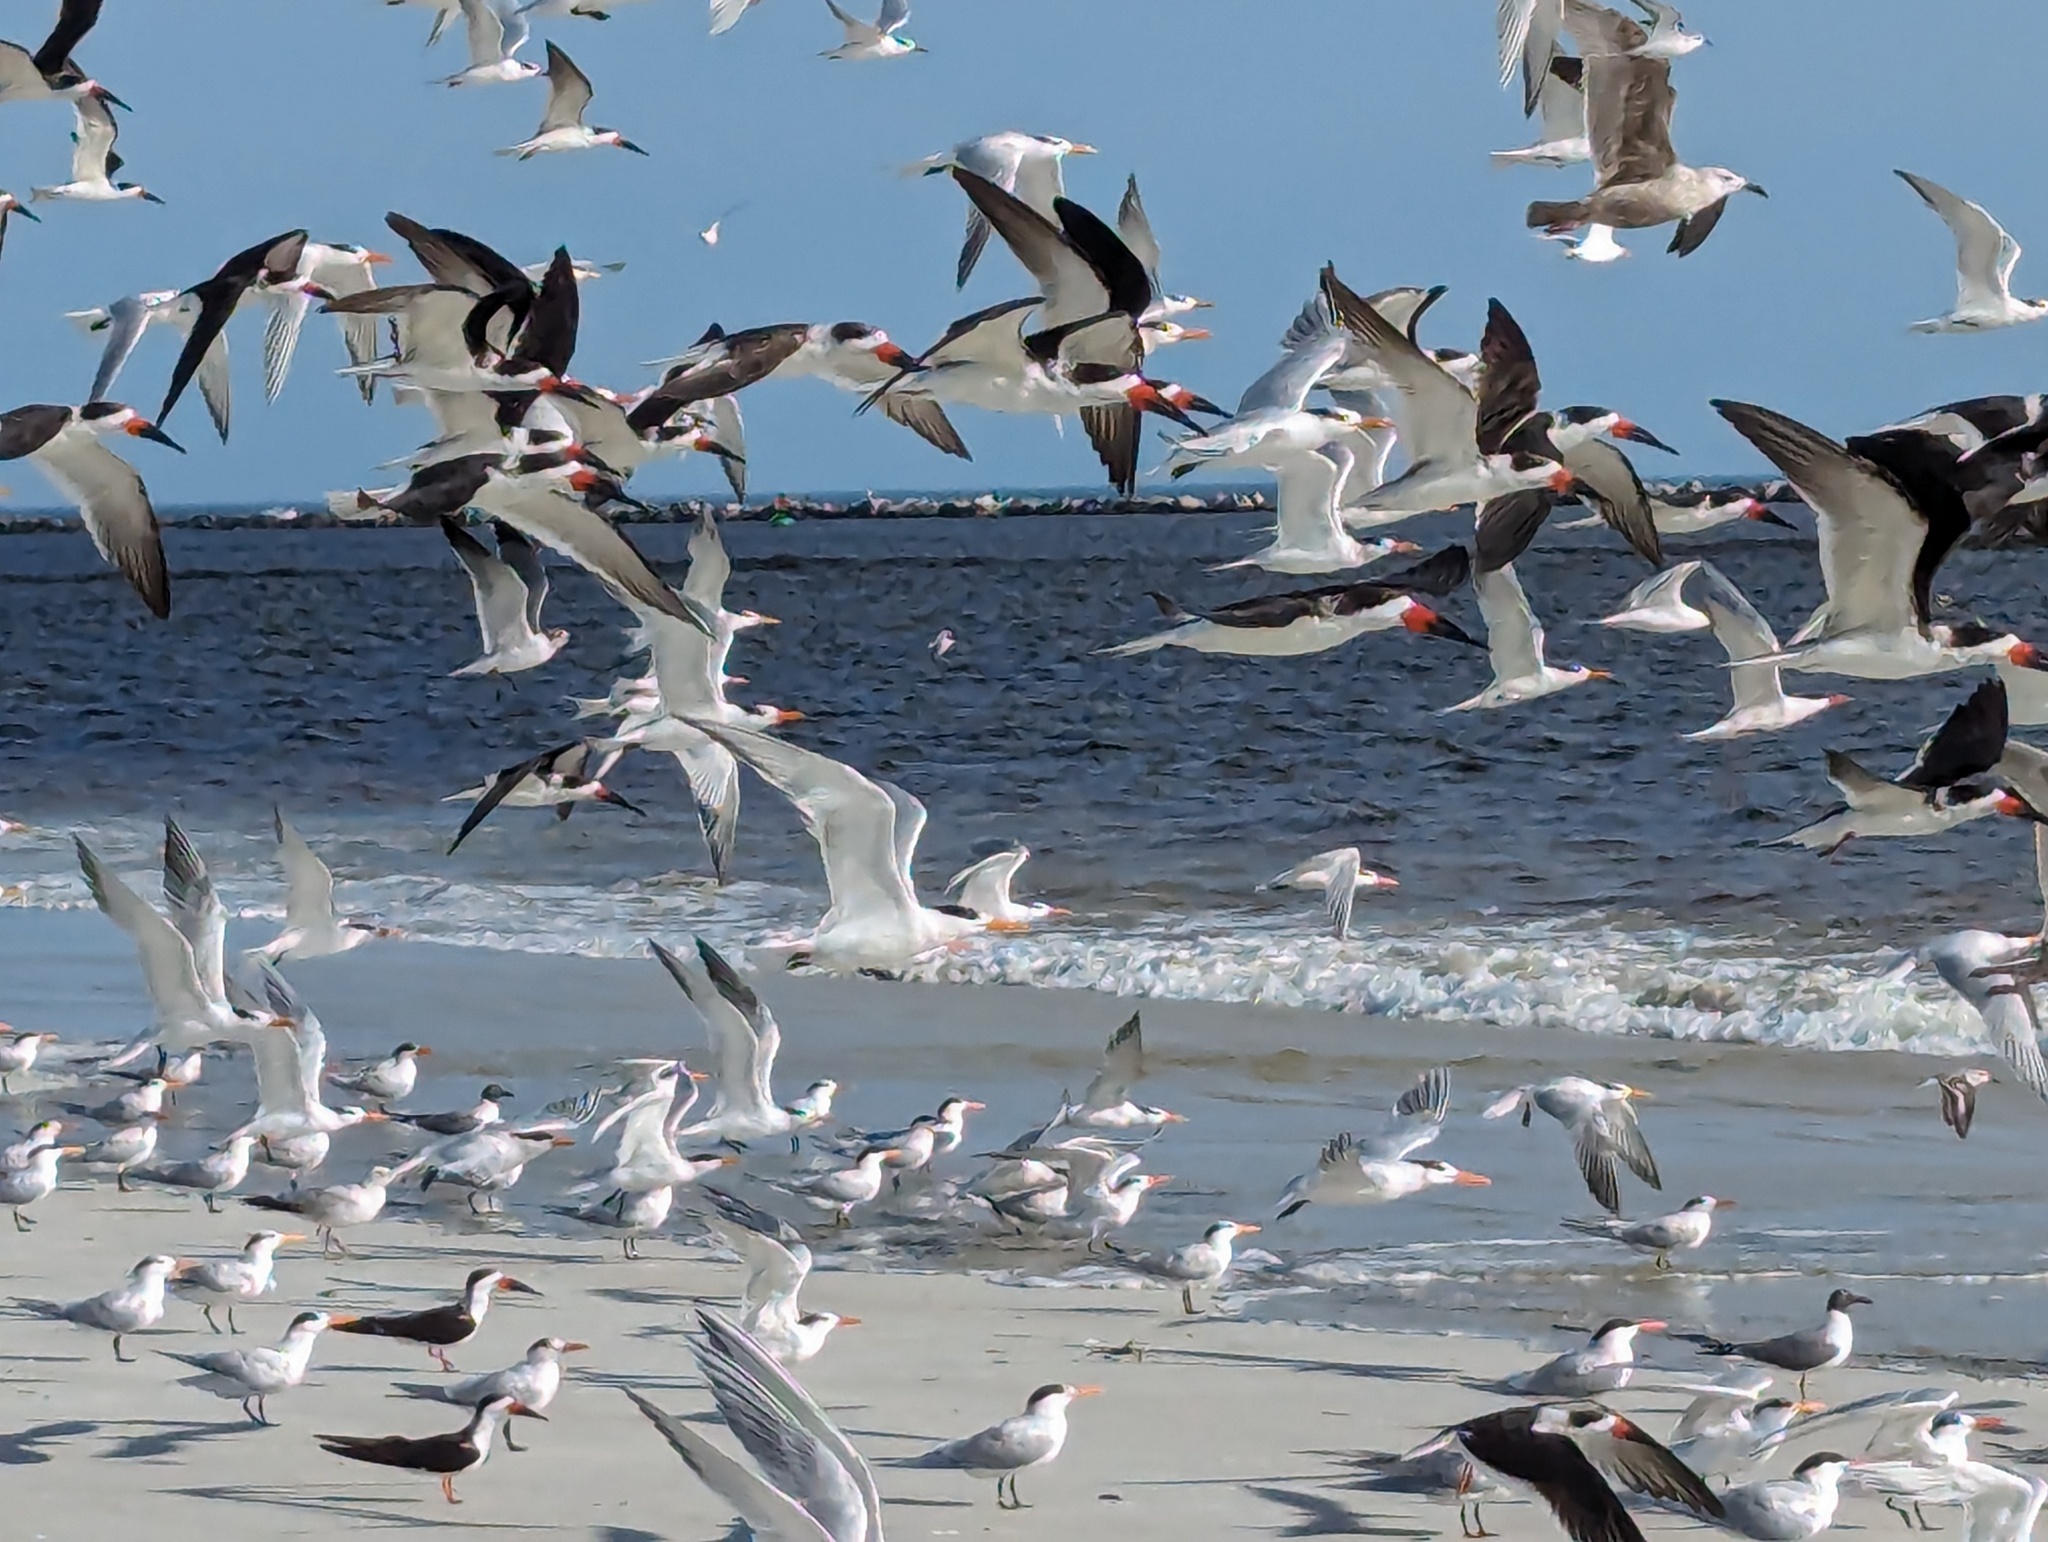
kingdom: Animalia
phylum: Chordata
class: Aves
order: Charadriiformes
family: Laridae
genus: Rynchops
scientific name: Rynchops niger
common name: Black skimmer
